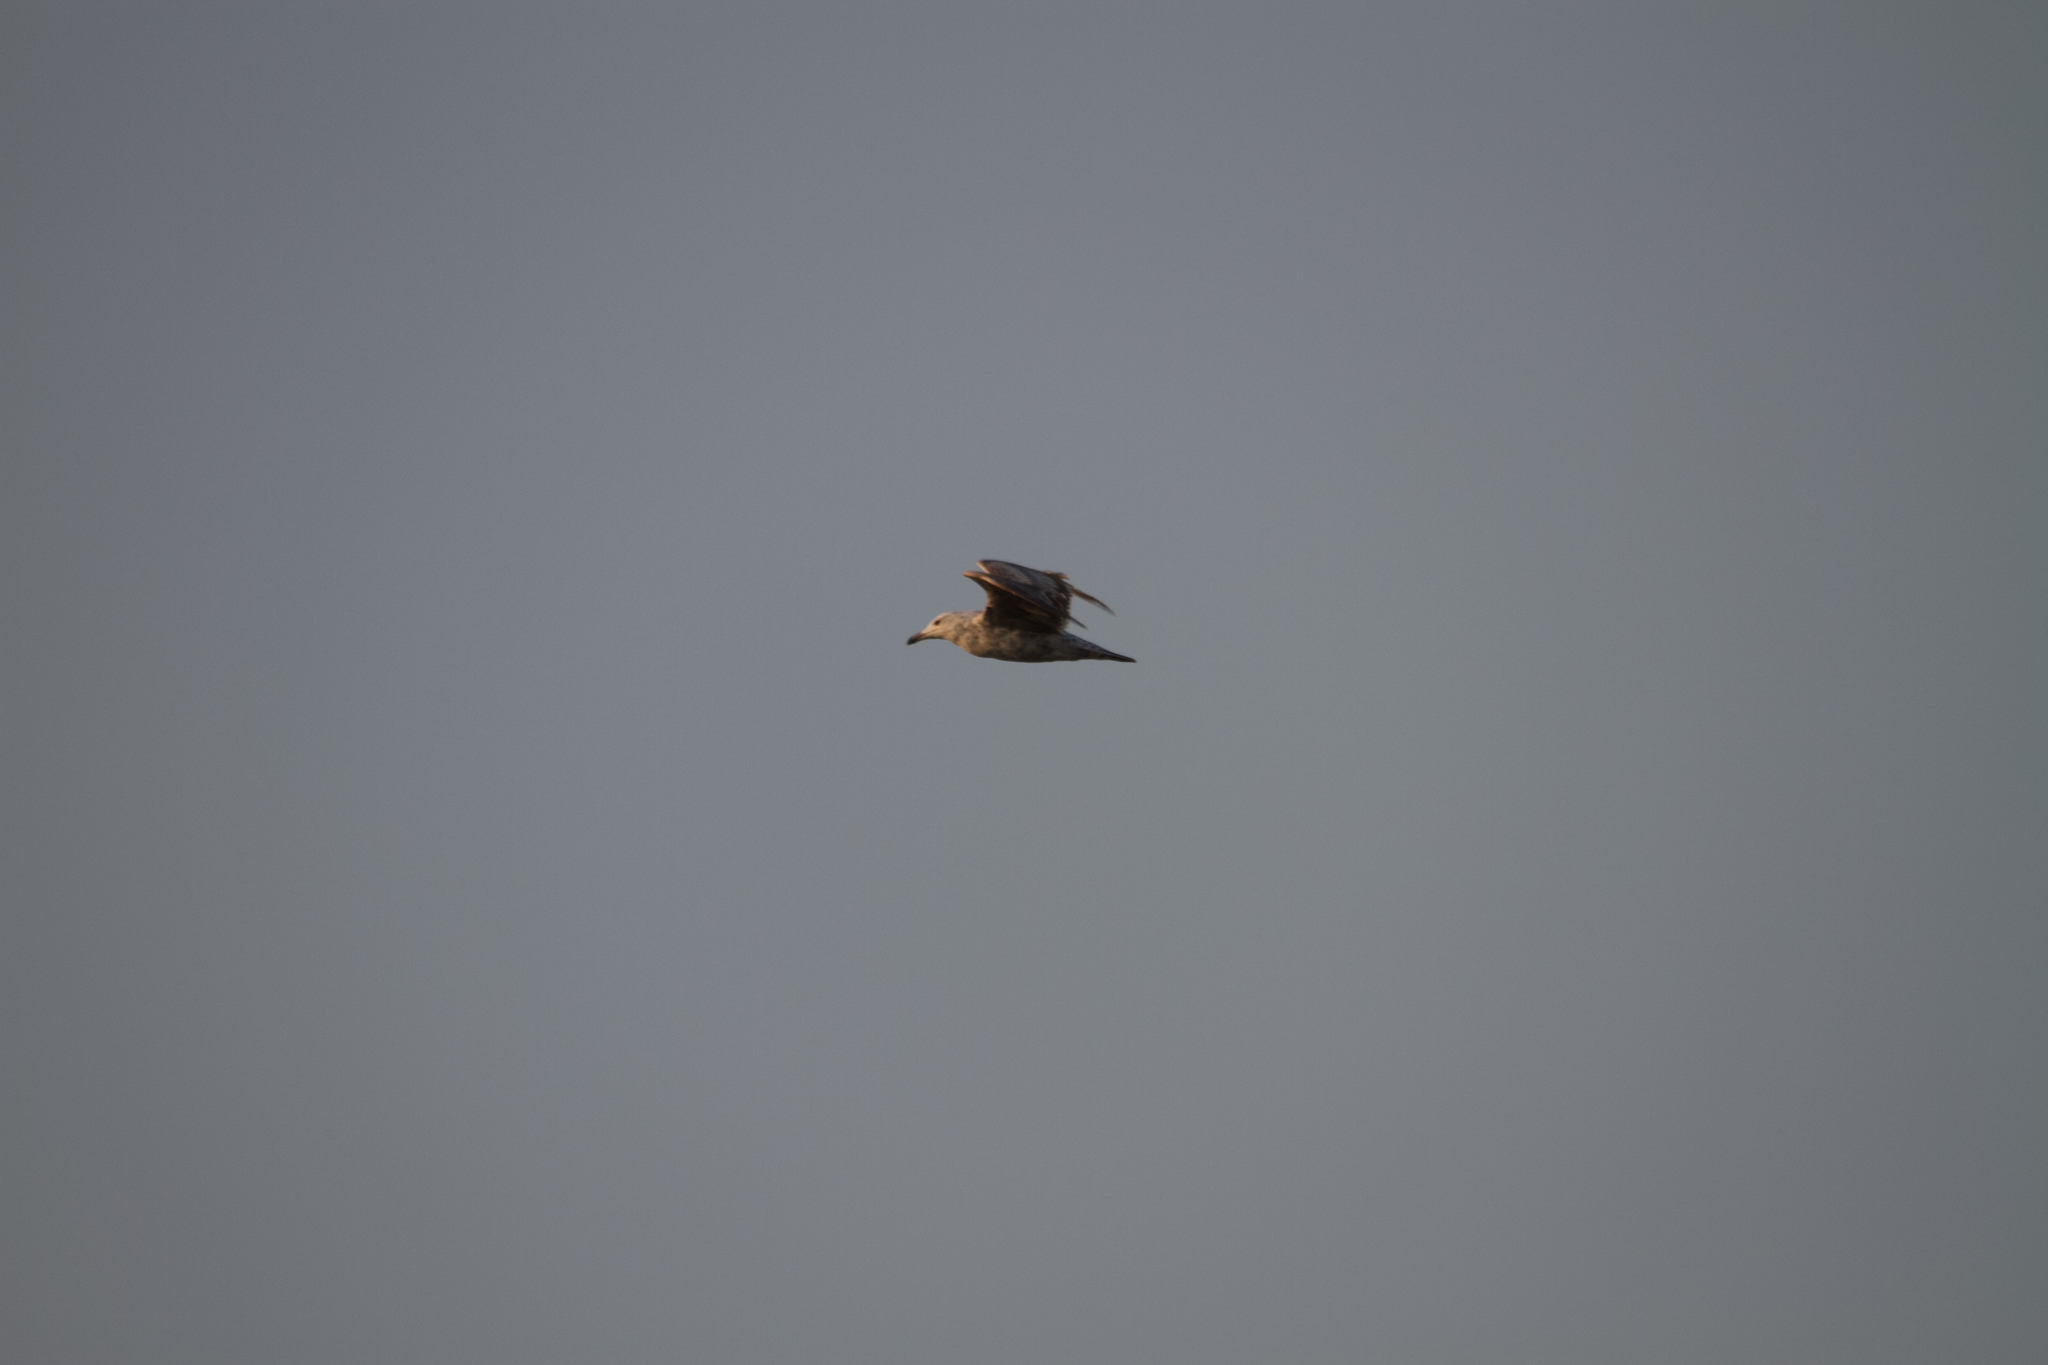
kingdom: Animalia
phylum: Chordata
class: Aves
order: Charadriiformes
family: Laridae
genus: Larus
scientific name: Larus argentatus
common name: Herring gull
